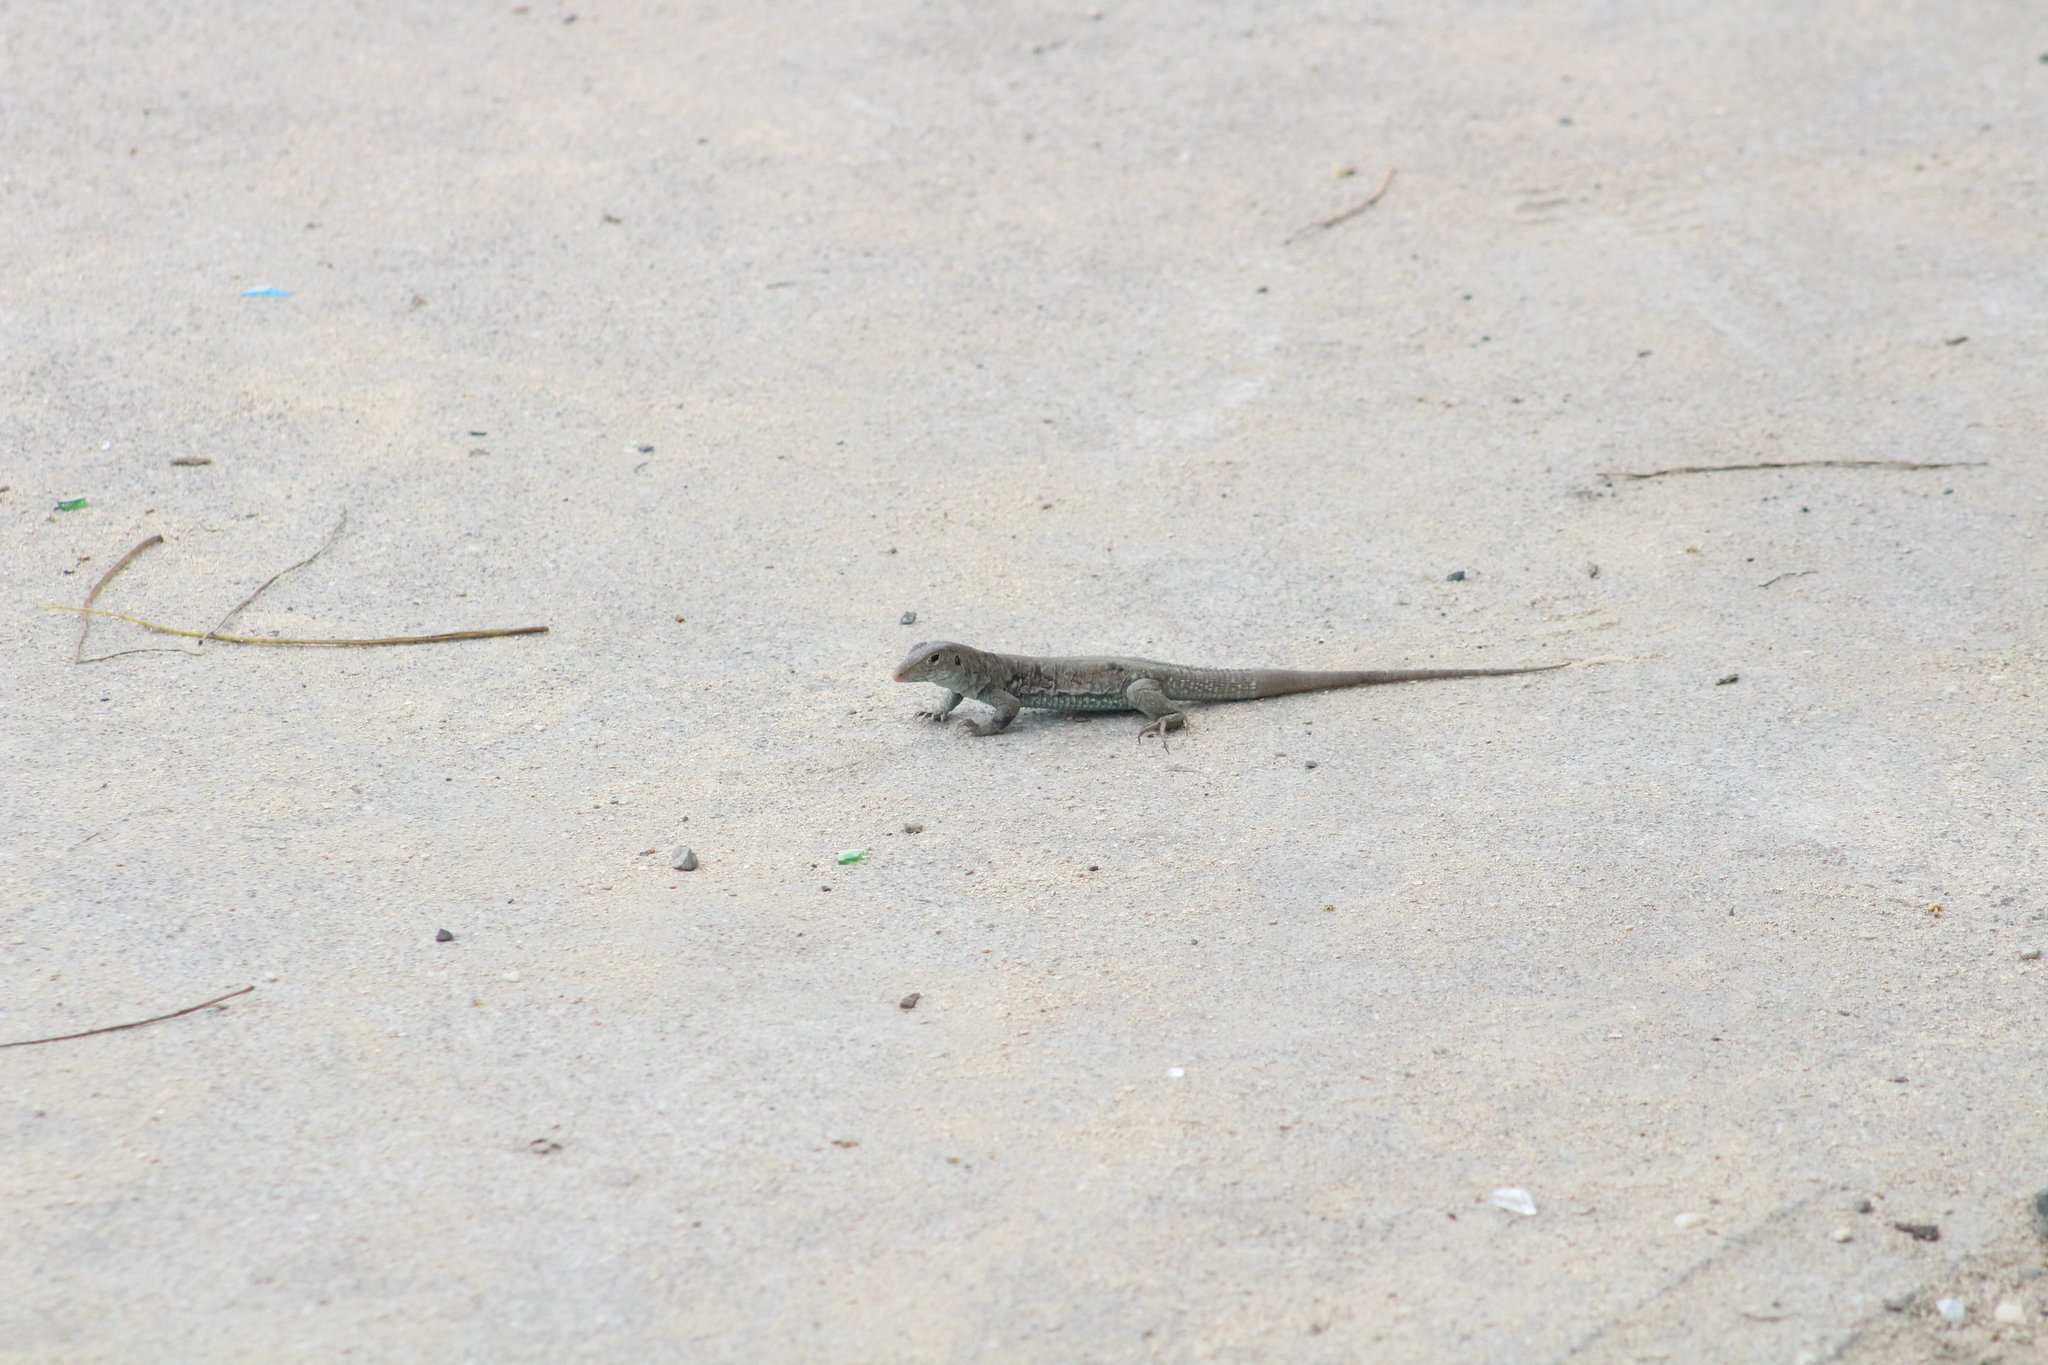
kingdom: Animalia
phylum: Chordata
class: Squamata
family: Teiidae
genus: Pholidoscelis
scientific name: Pholidoscelis plei
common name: Anguilla bank ameiva
